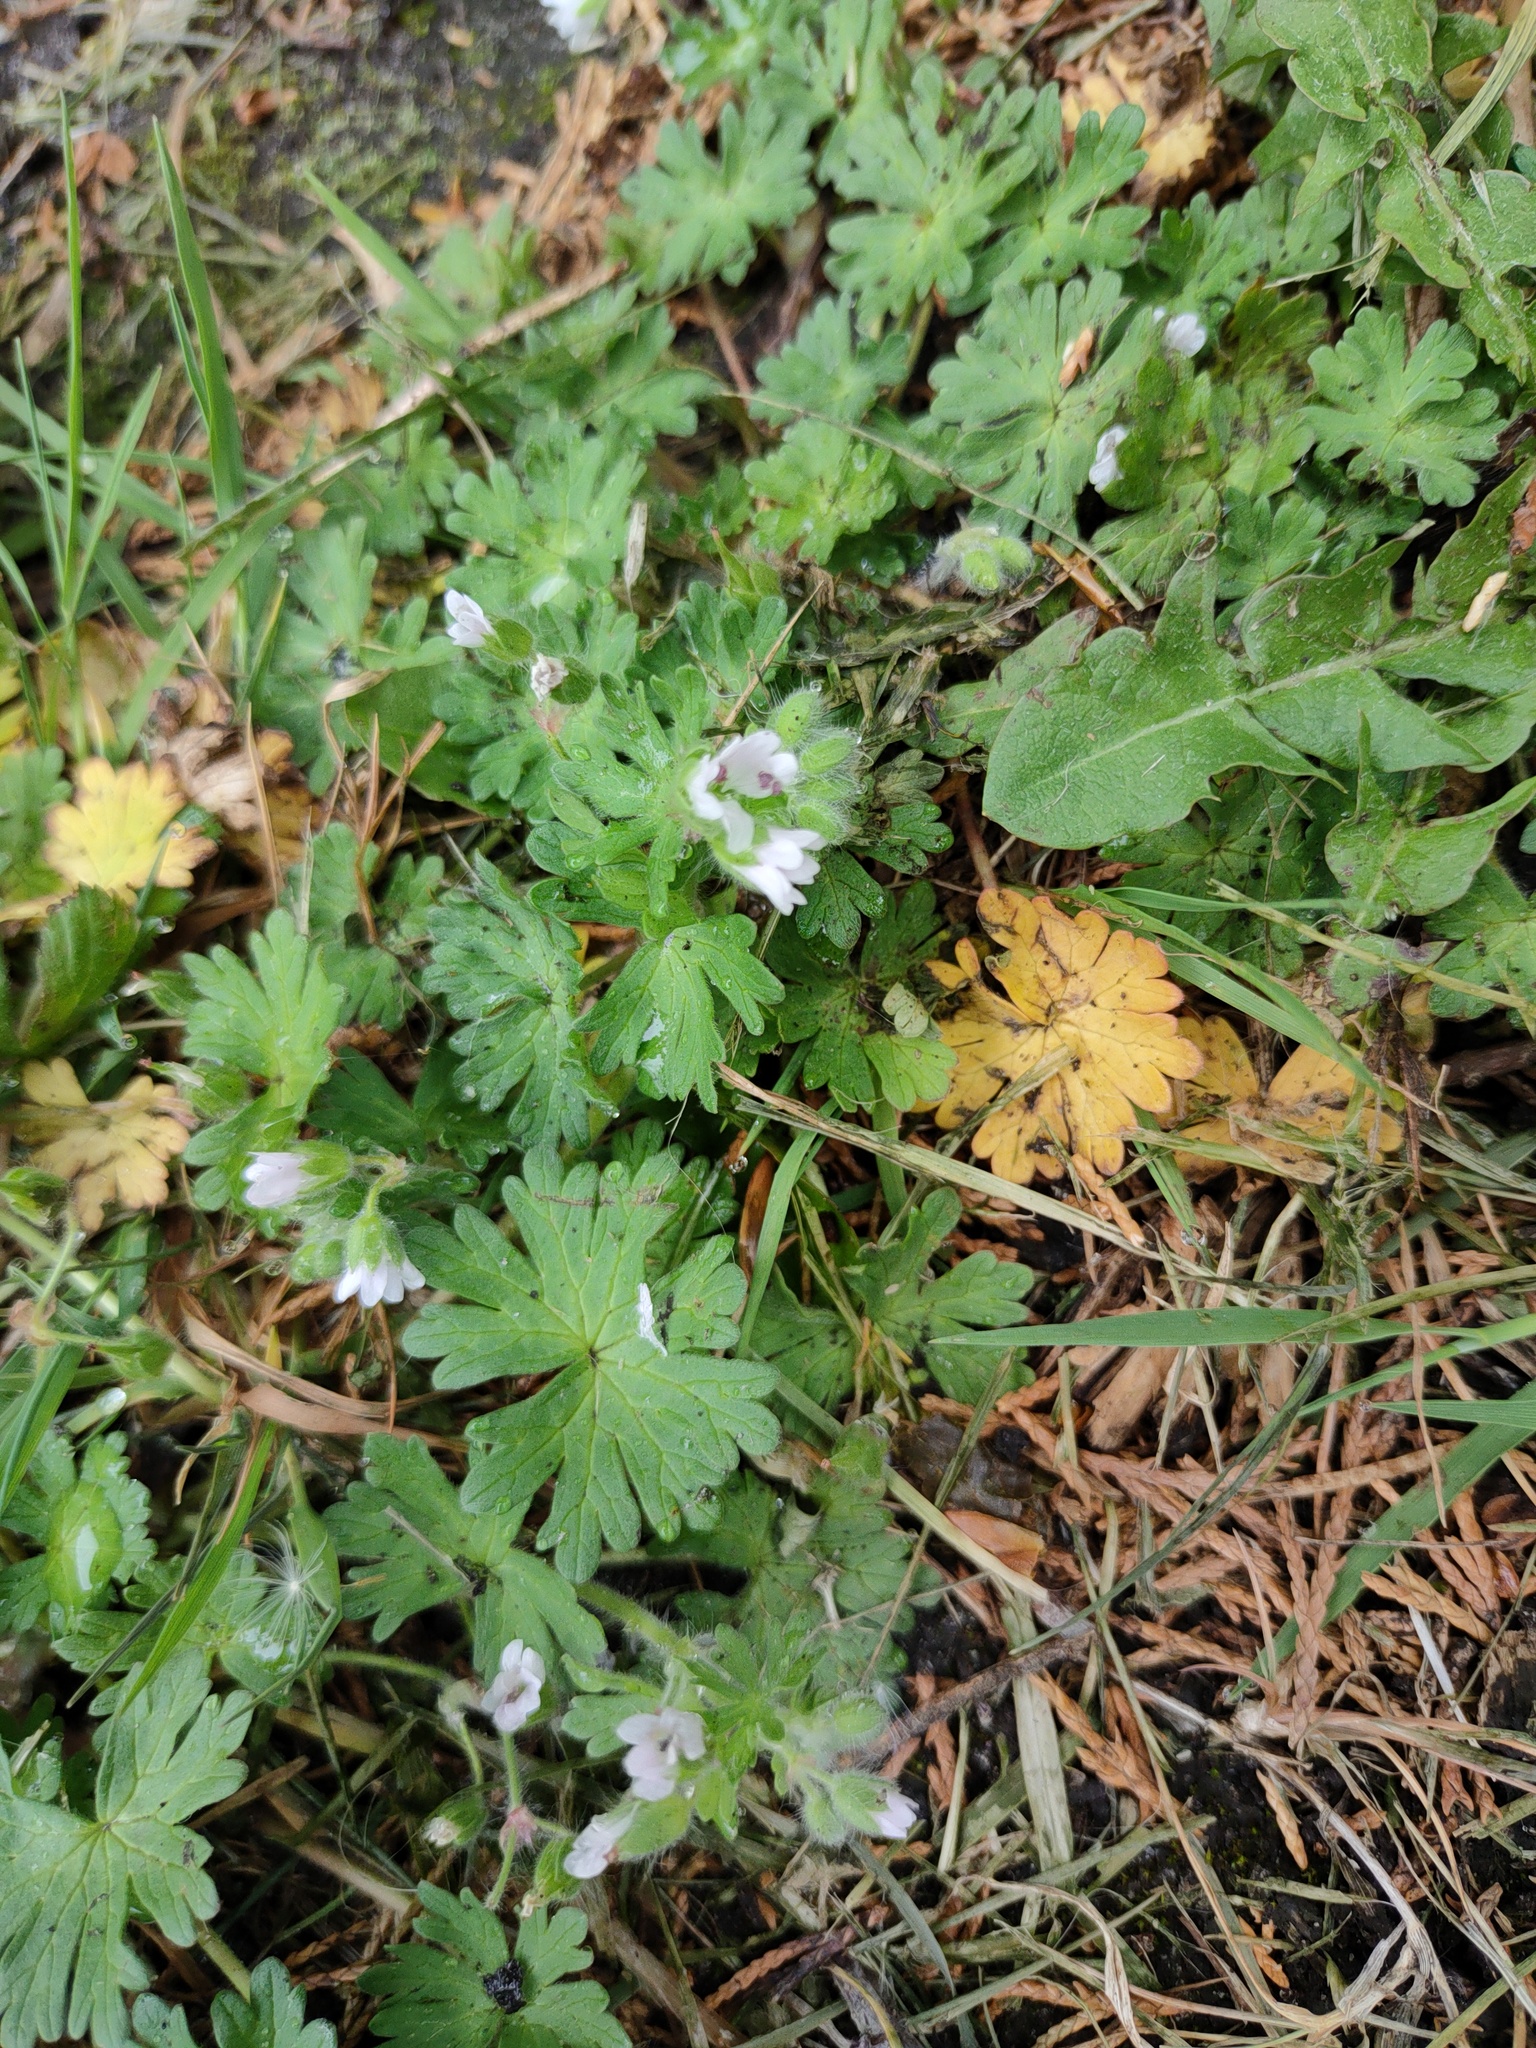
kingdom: Plantae
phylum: Tracheophyta
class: Magnoliopsida
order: Geraniales
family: Geraniaceae
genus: Geranium
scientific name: Geranium molle
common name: Dove's-foot crane's-bill
